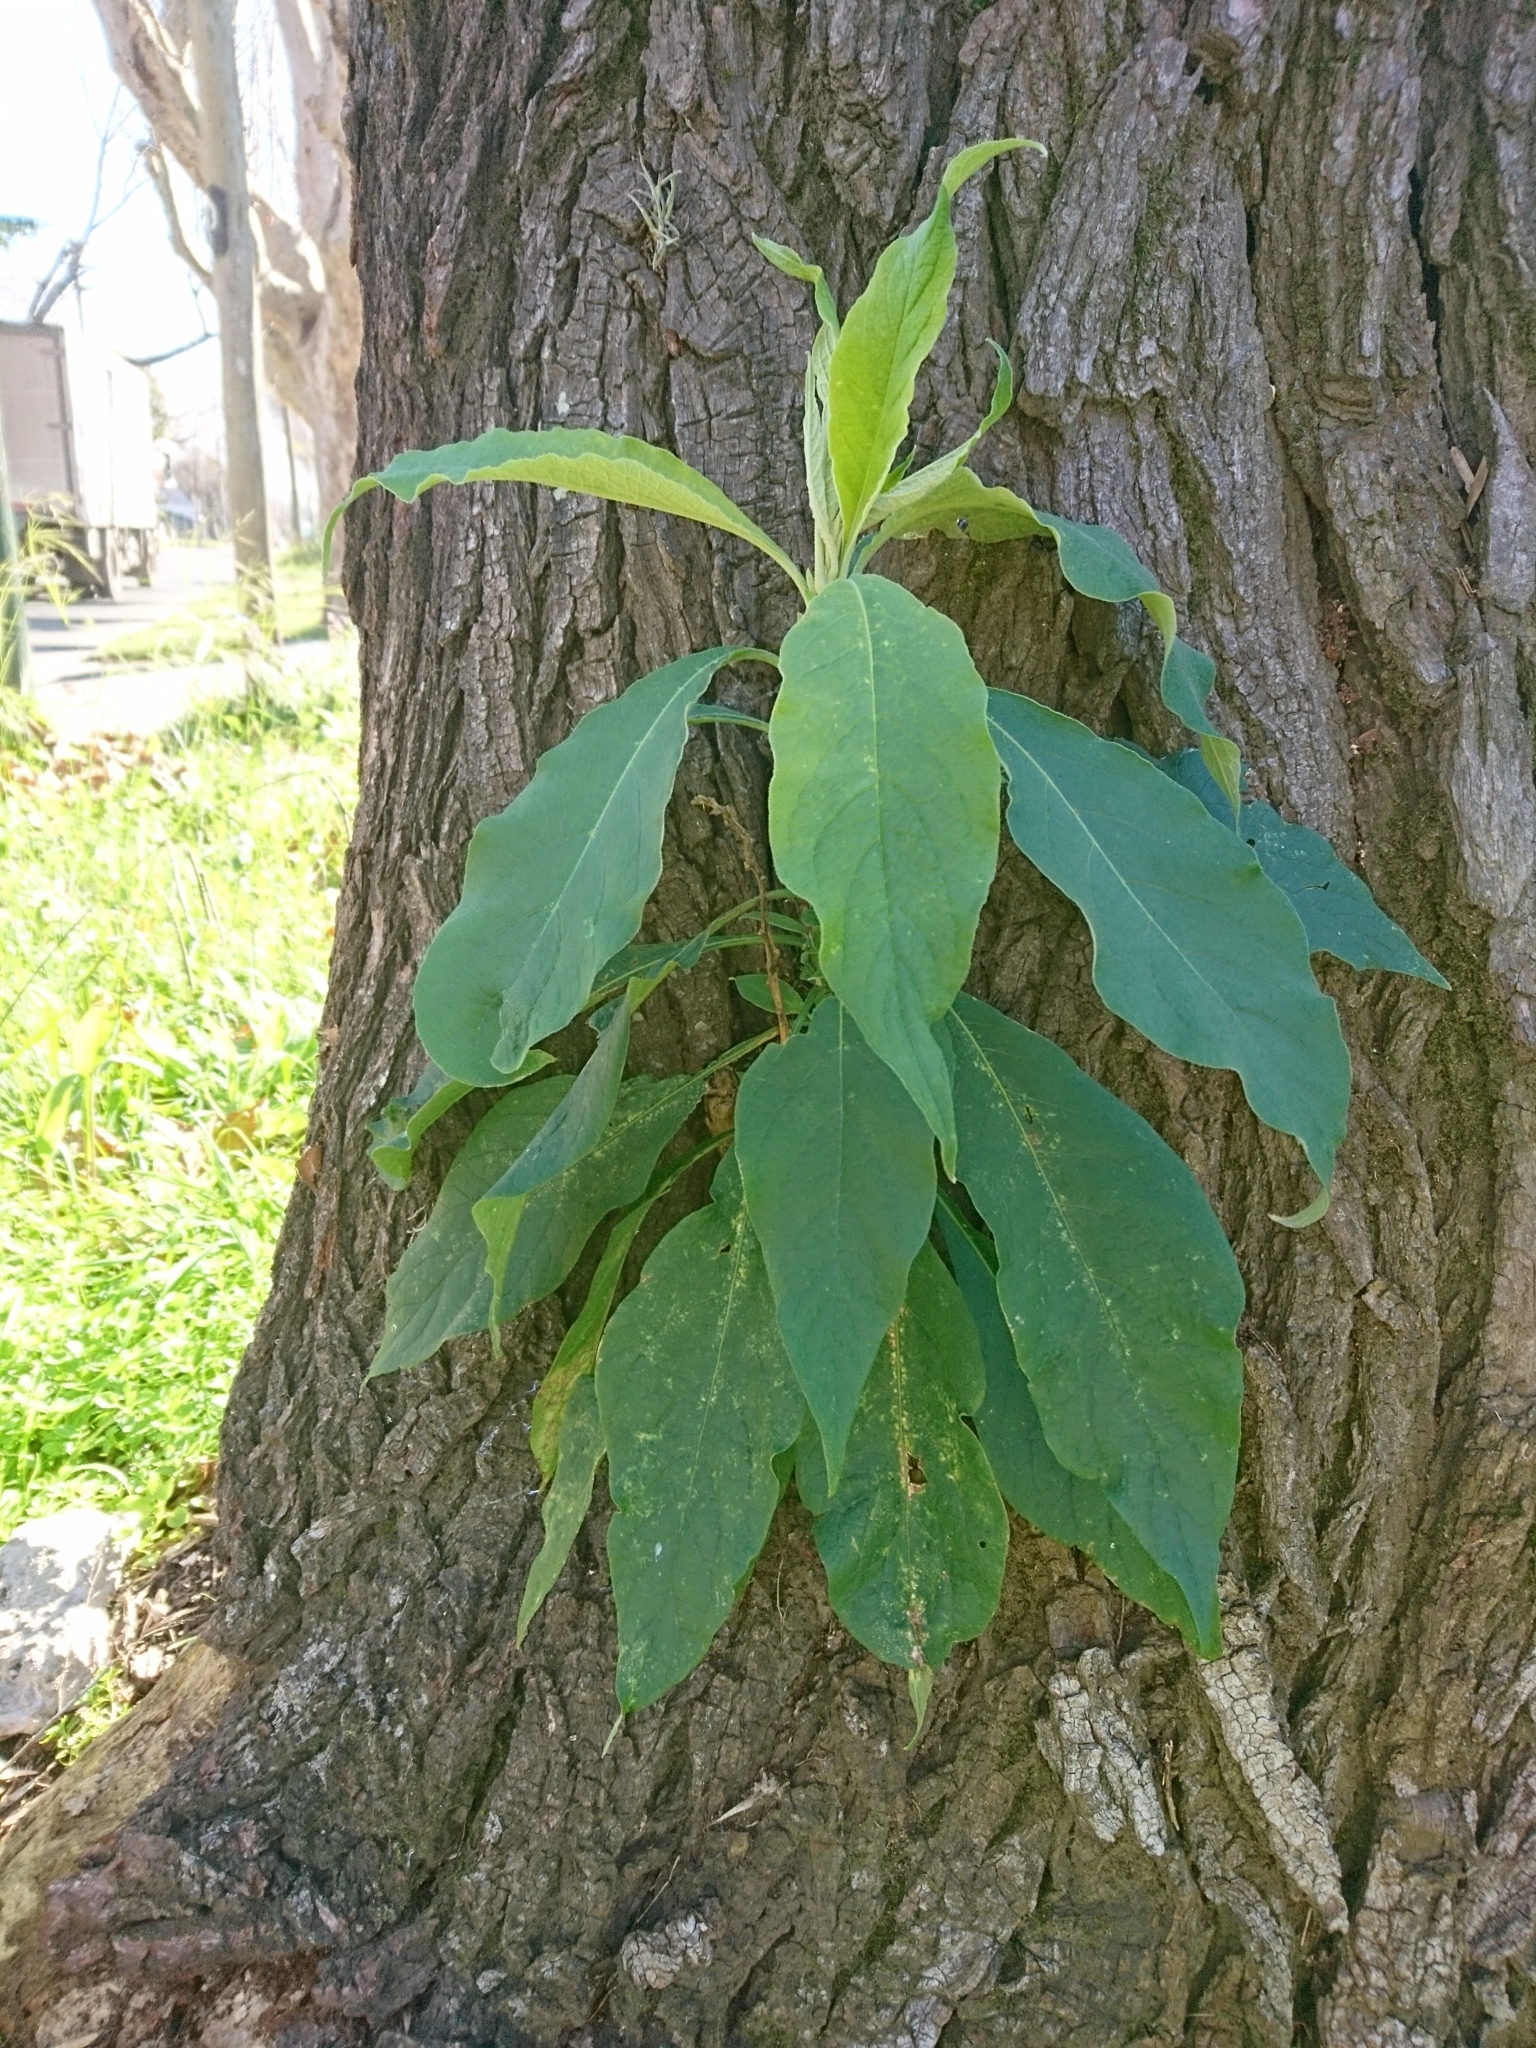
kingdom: Plantae
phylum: Tracheophyta
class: Magnoliopsida
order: Solanales
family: Solanaceae
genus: Solanum
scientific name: Solanum granulosoleprosum
